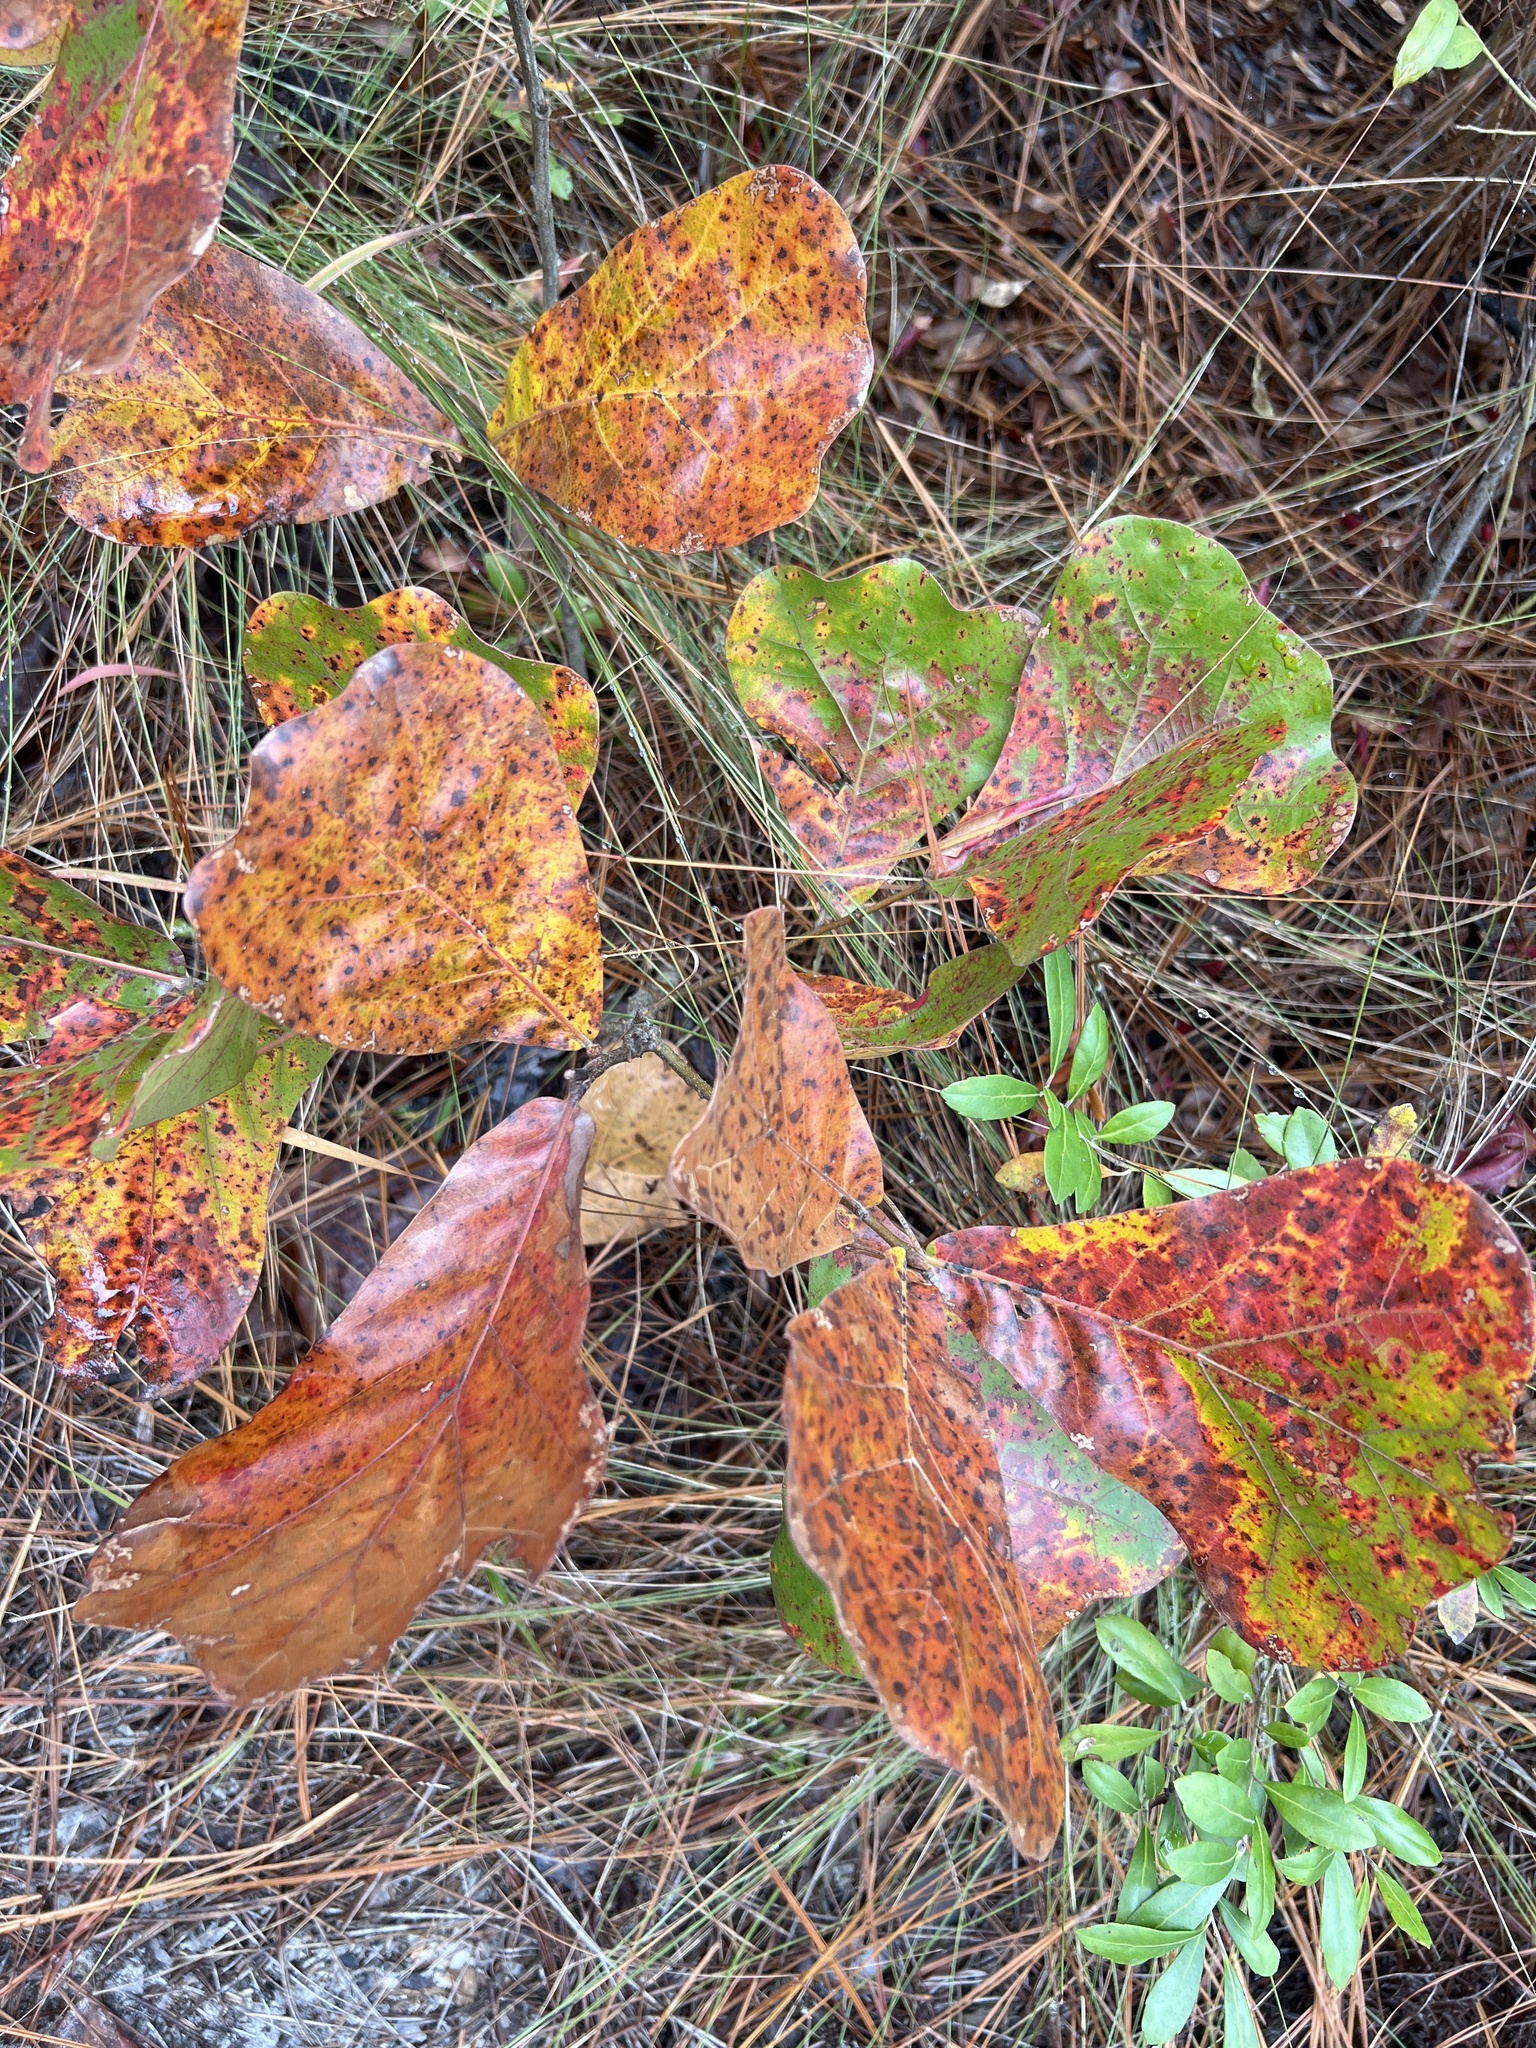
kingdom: Plantae
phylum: Tracheophyta
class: Magnoliopsida
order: Fagales
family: Fagaceae
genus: Quercus
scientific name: Quercus marilandica
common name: Blackjack oak
